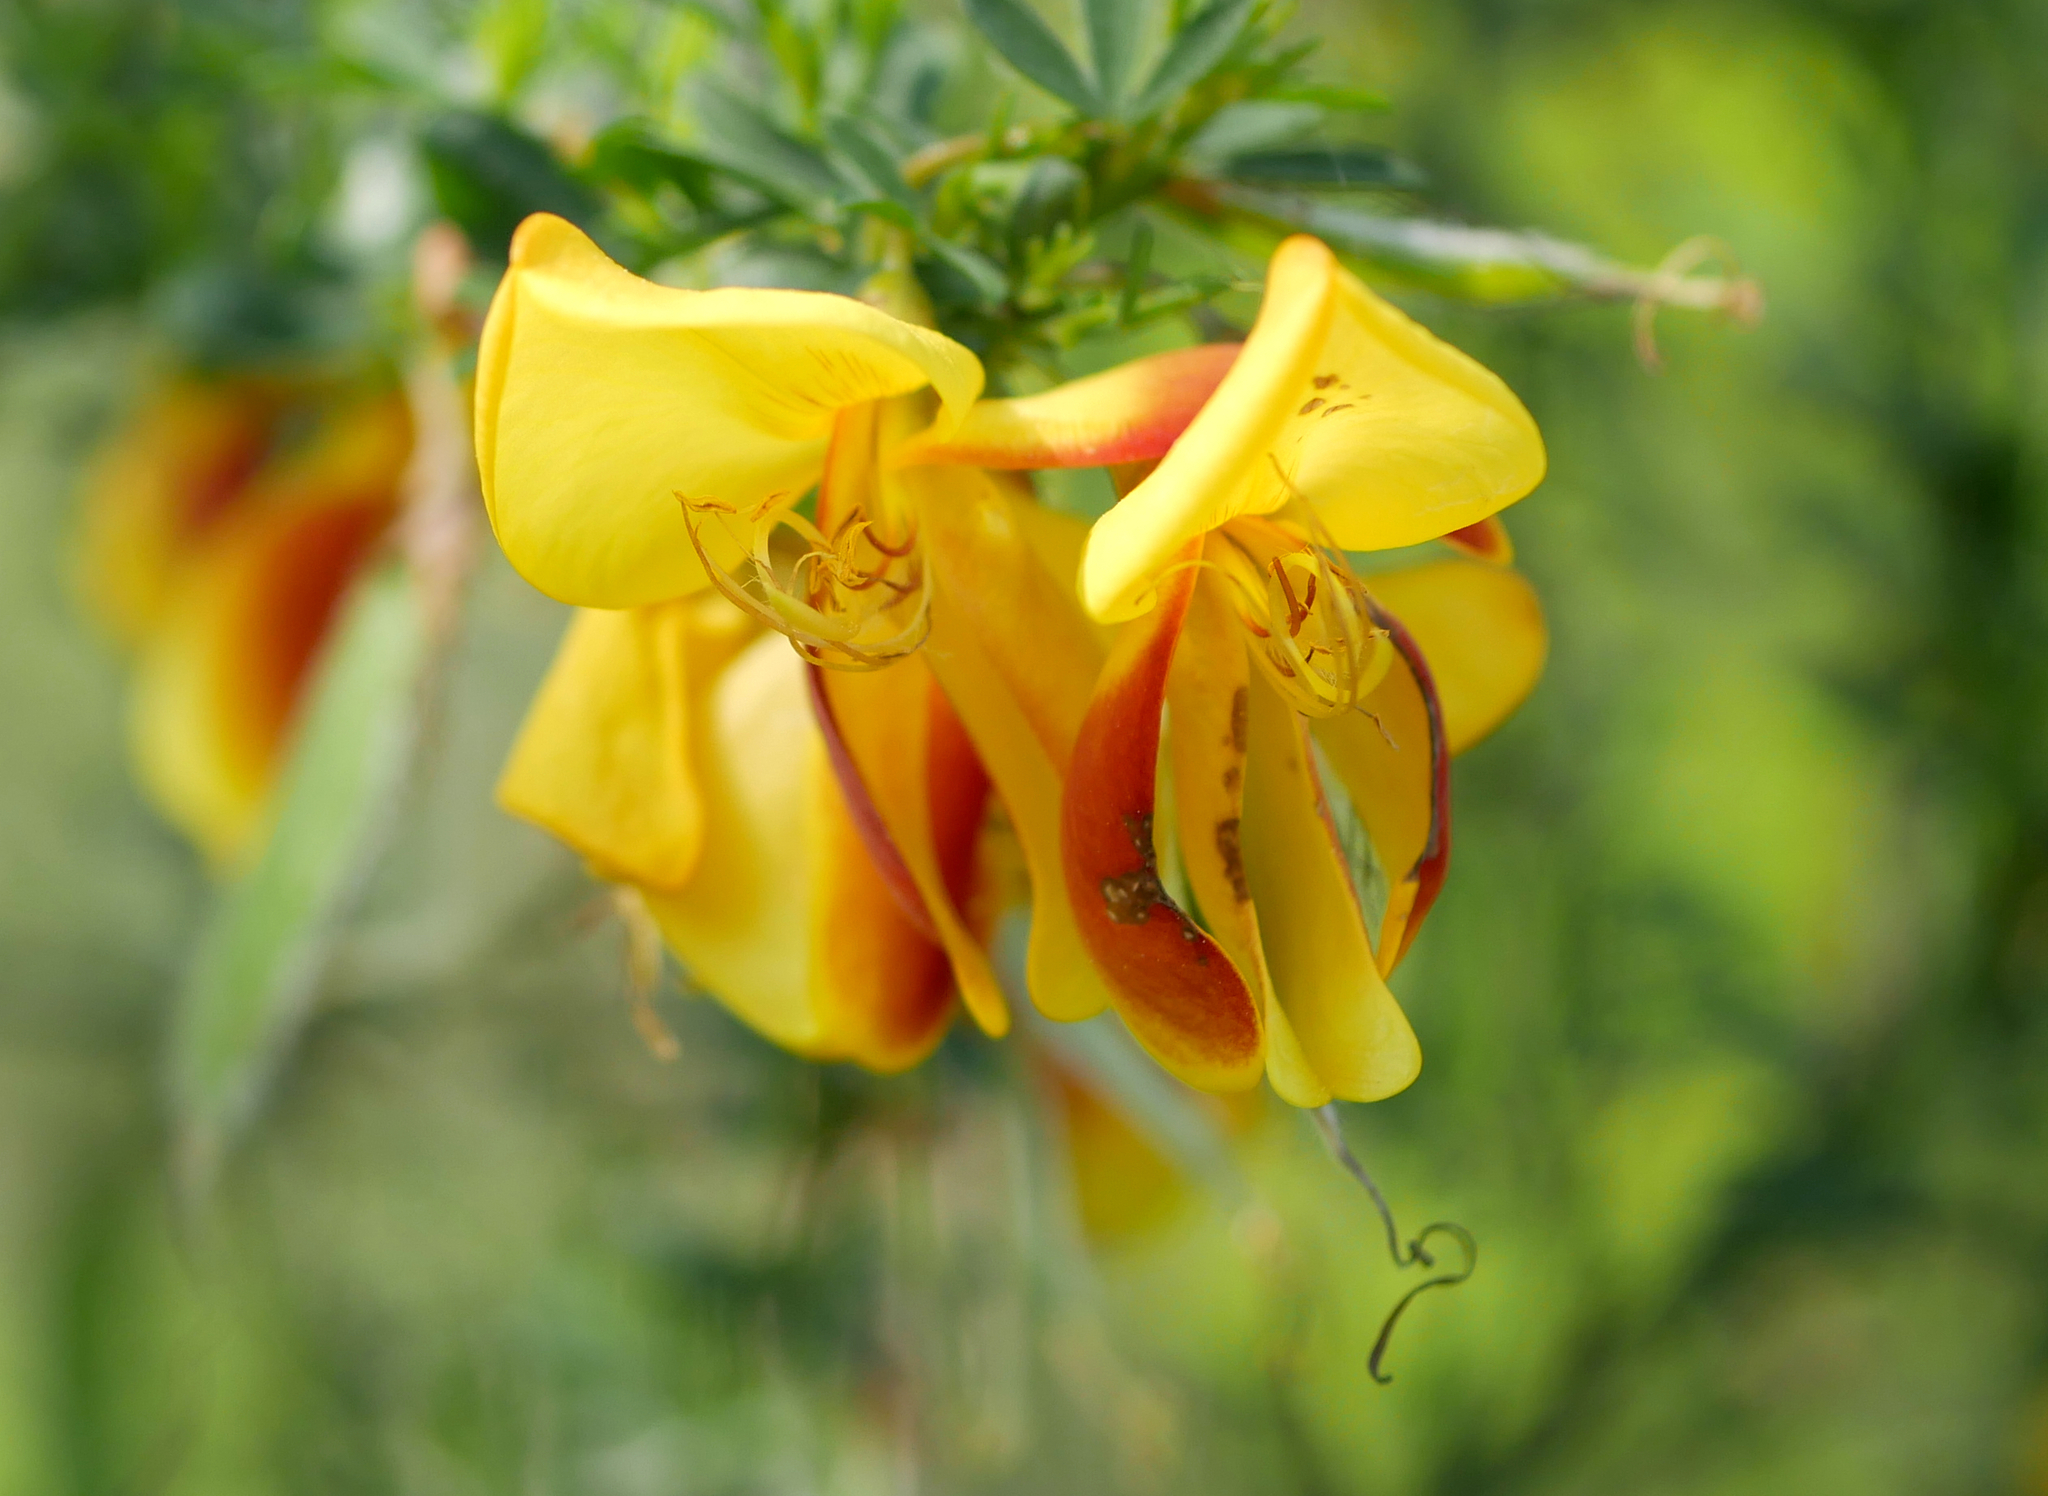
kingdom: Plantae
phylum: Tracheophyta
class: Magnoliopsida
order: Fabales
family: Fabaceae
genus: Cytisus
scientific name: Cytisus scoparius
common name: Scotch broom
